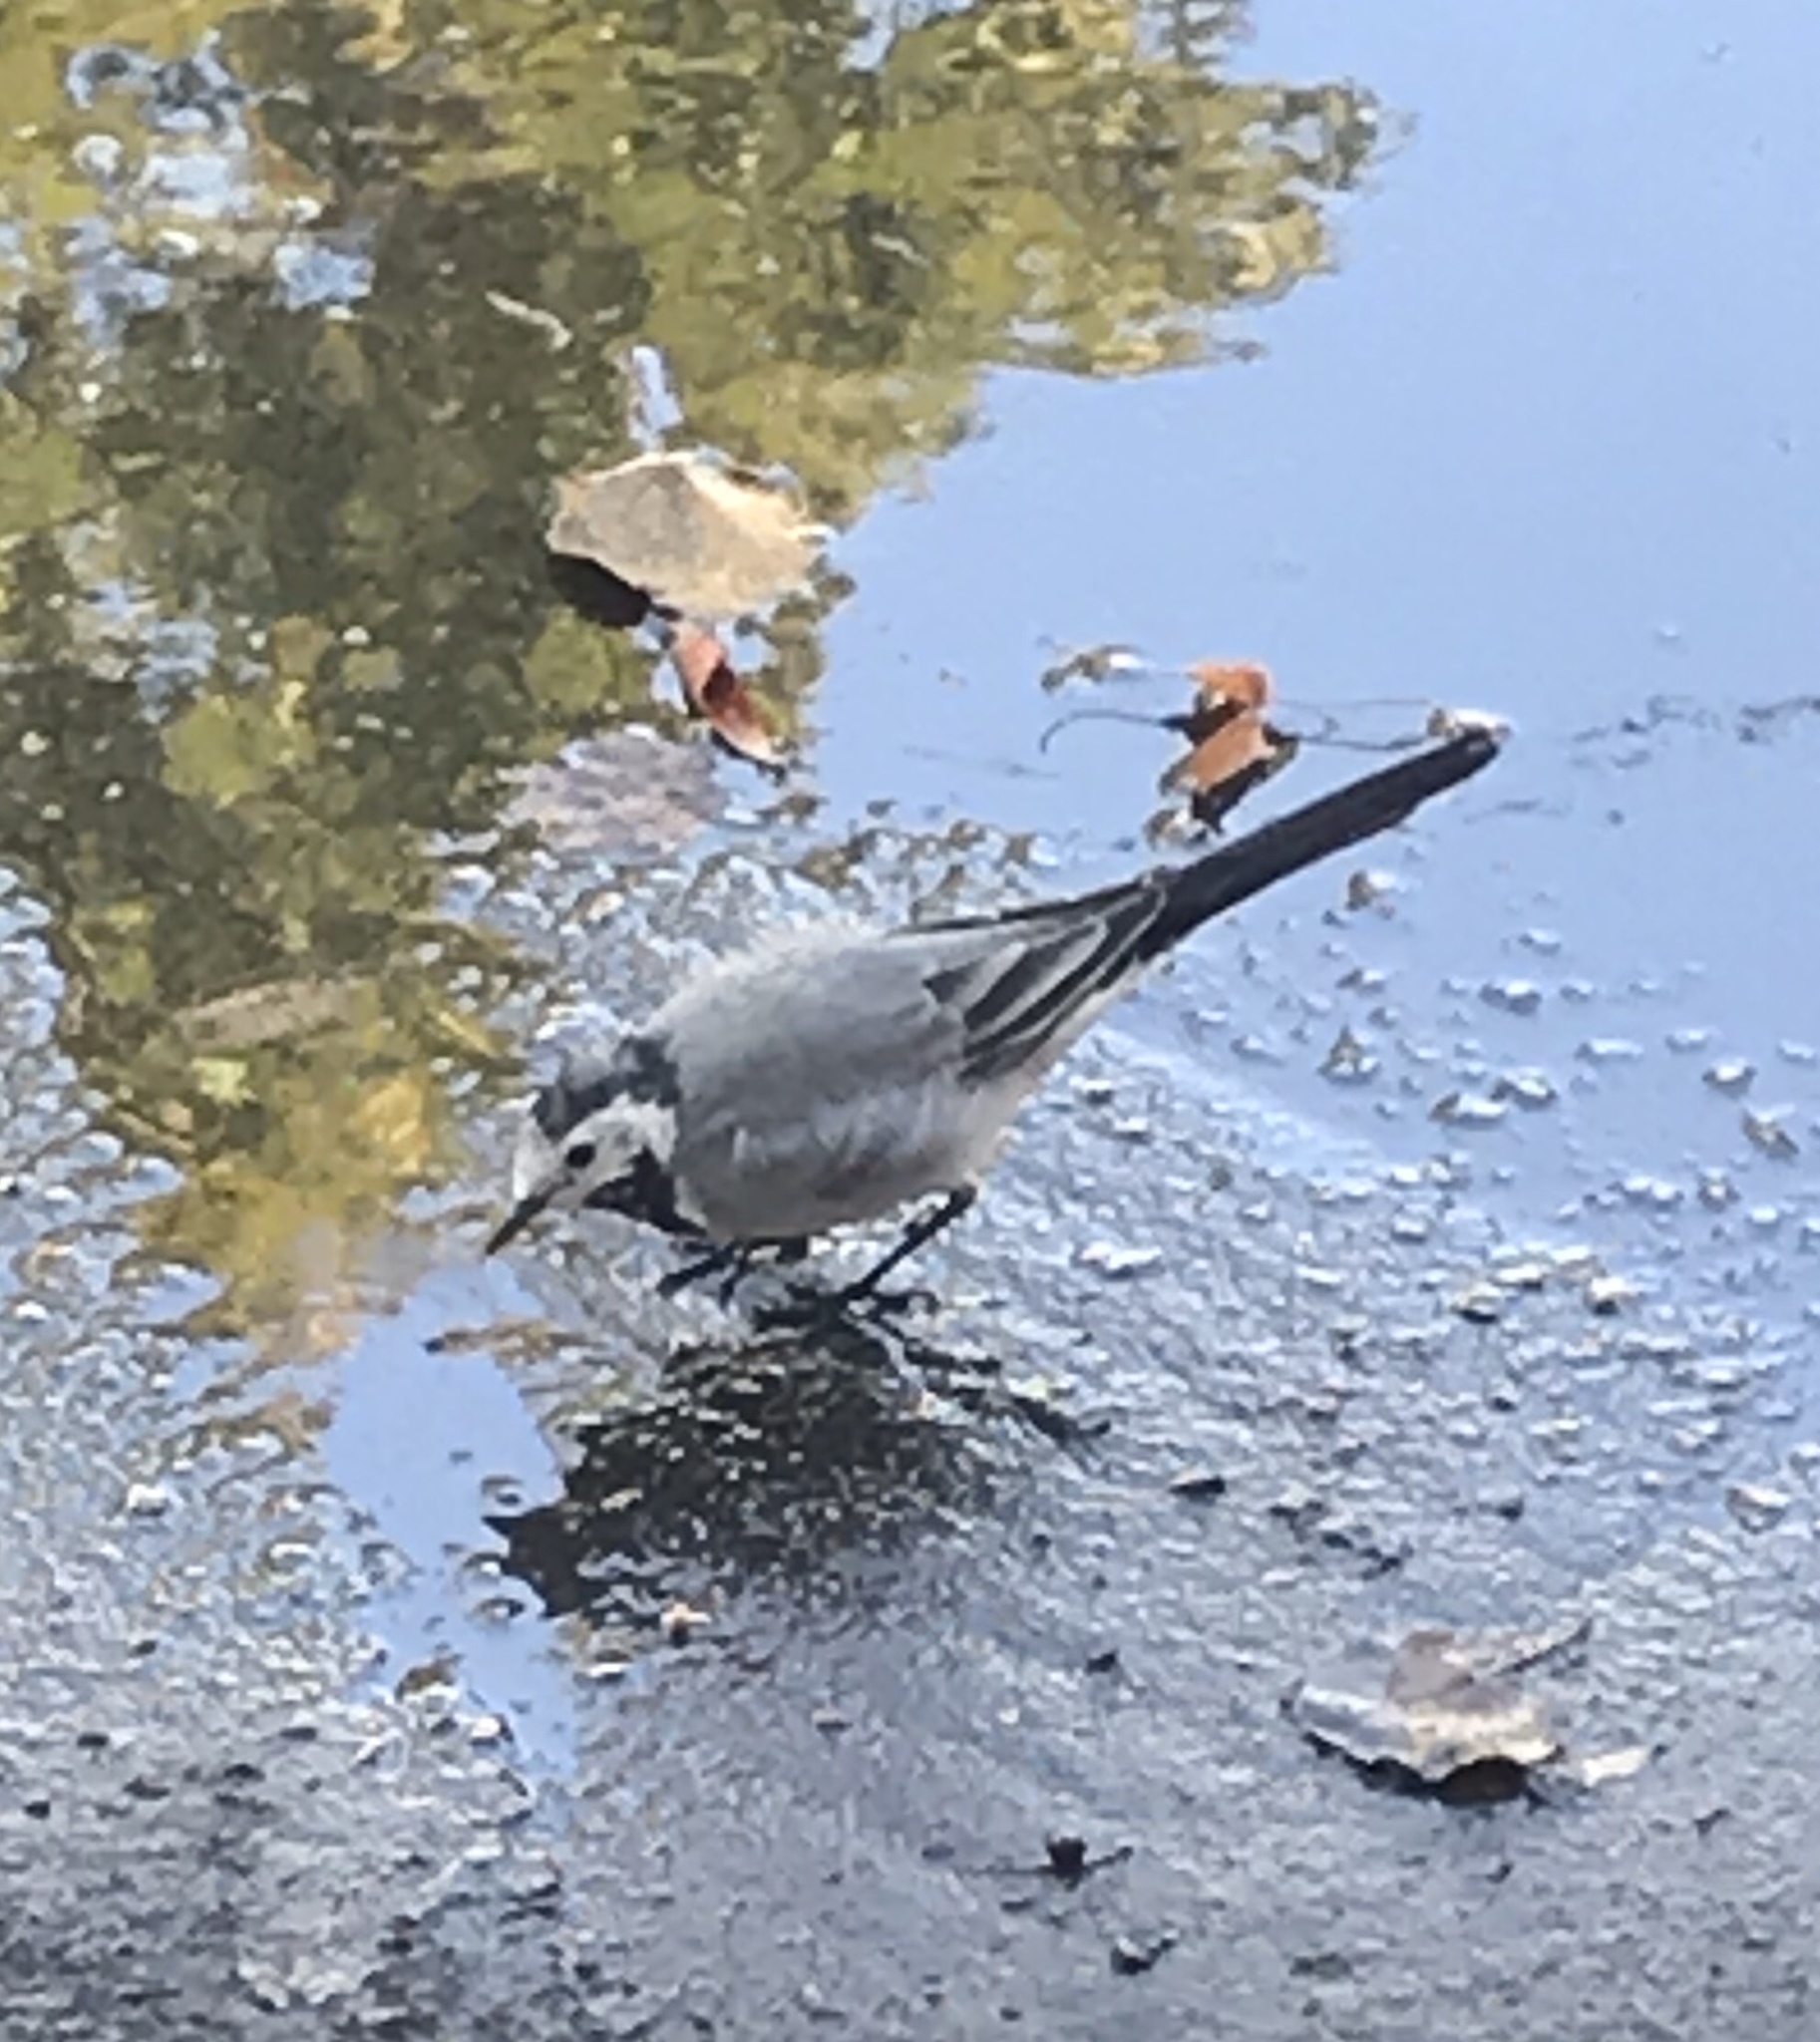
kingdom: Animalia
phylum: Chordata
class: Aves
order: Passeriformes
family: Motacillidae
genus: Motacilla
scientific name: Motacilla alba
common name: White wagtail
